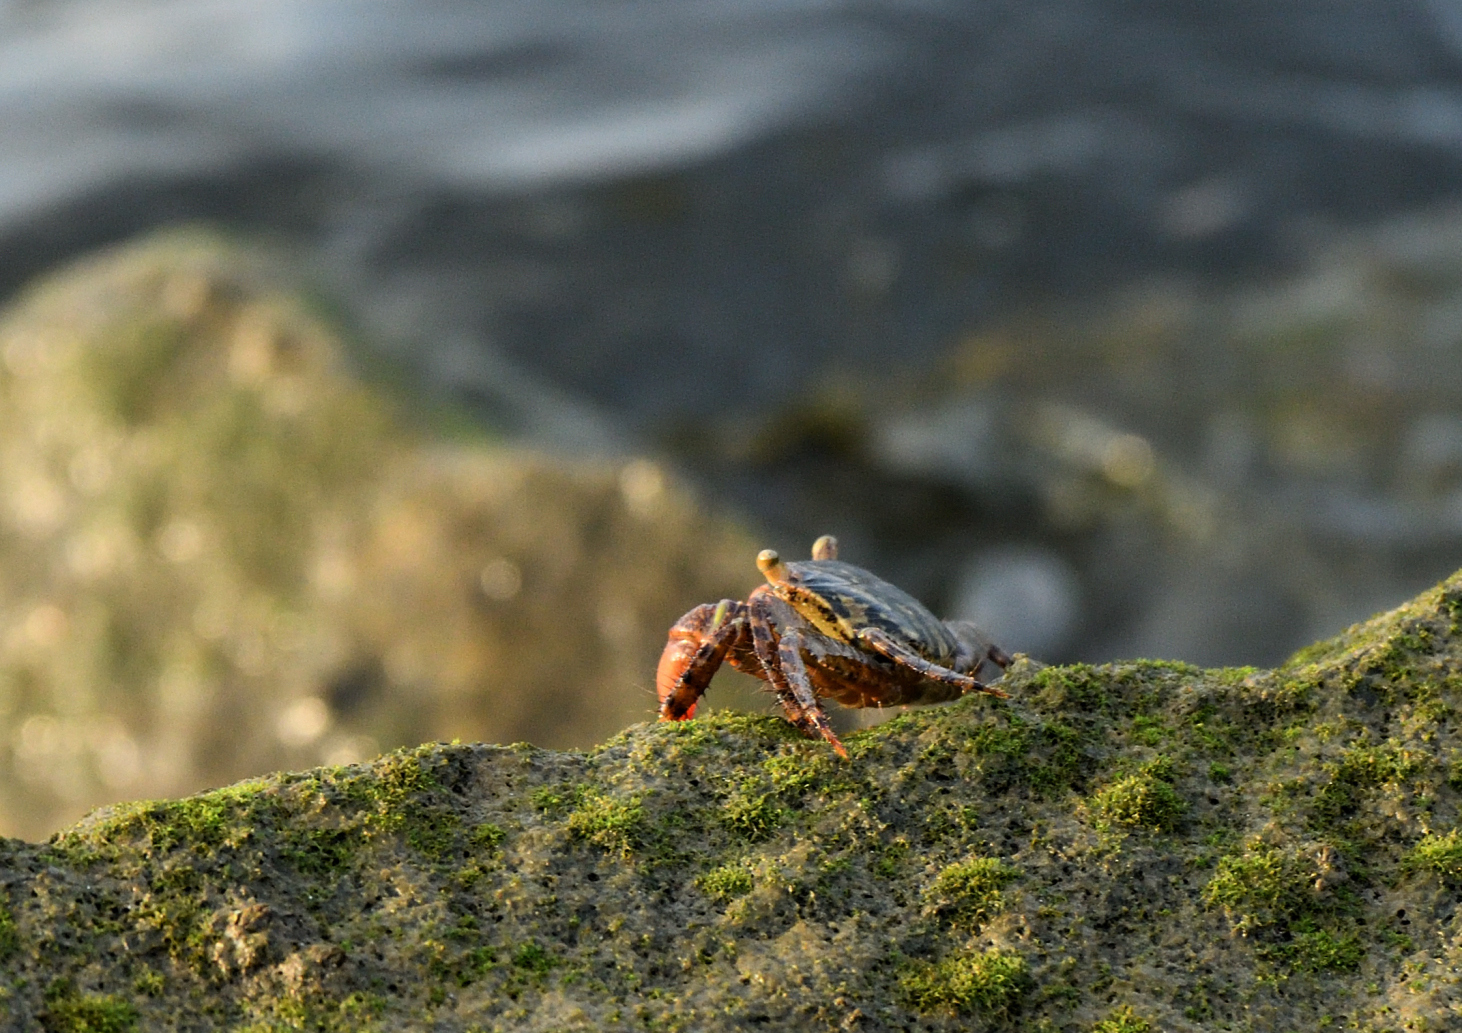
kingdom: Animalia
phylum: Arthropoda
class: Malacostraca
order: Decapoda
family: Grapsidae
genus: Grapsus
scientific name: Grapsus albolineatus
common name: Mottled lightfoot crab
